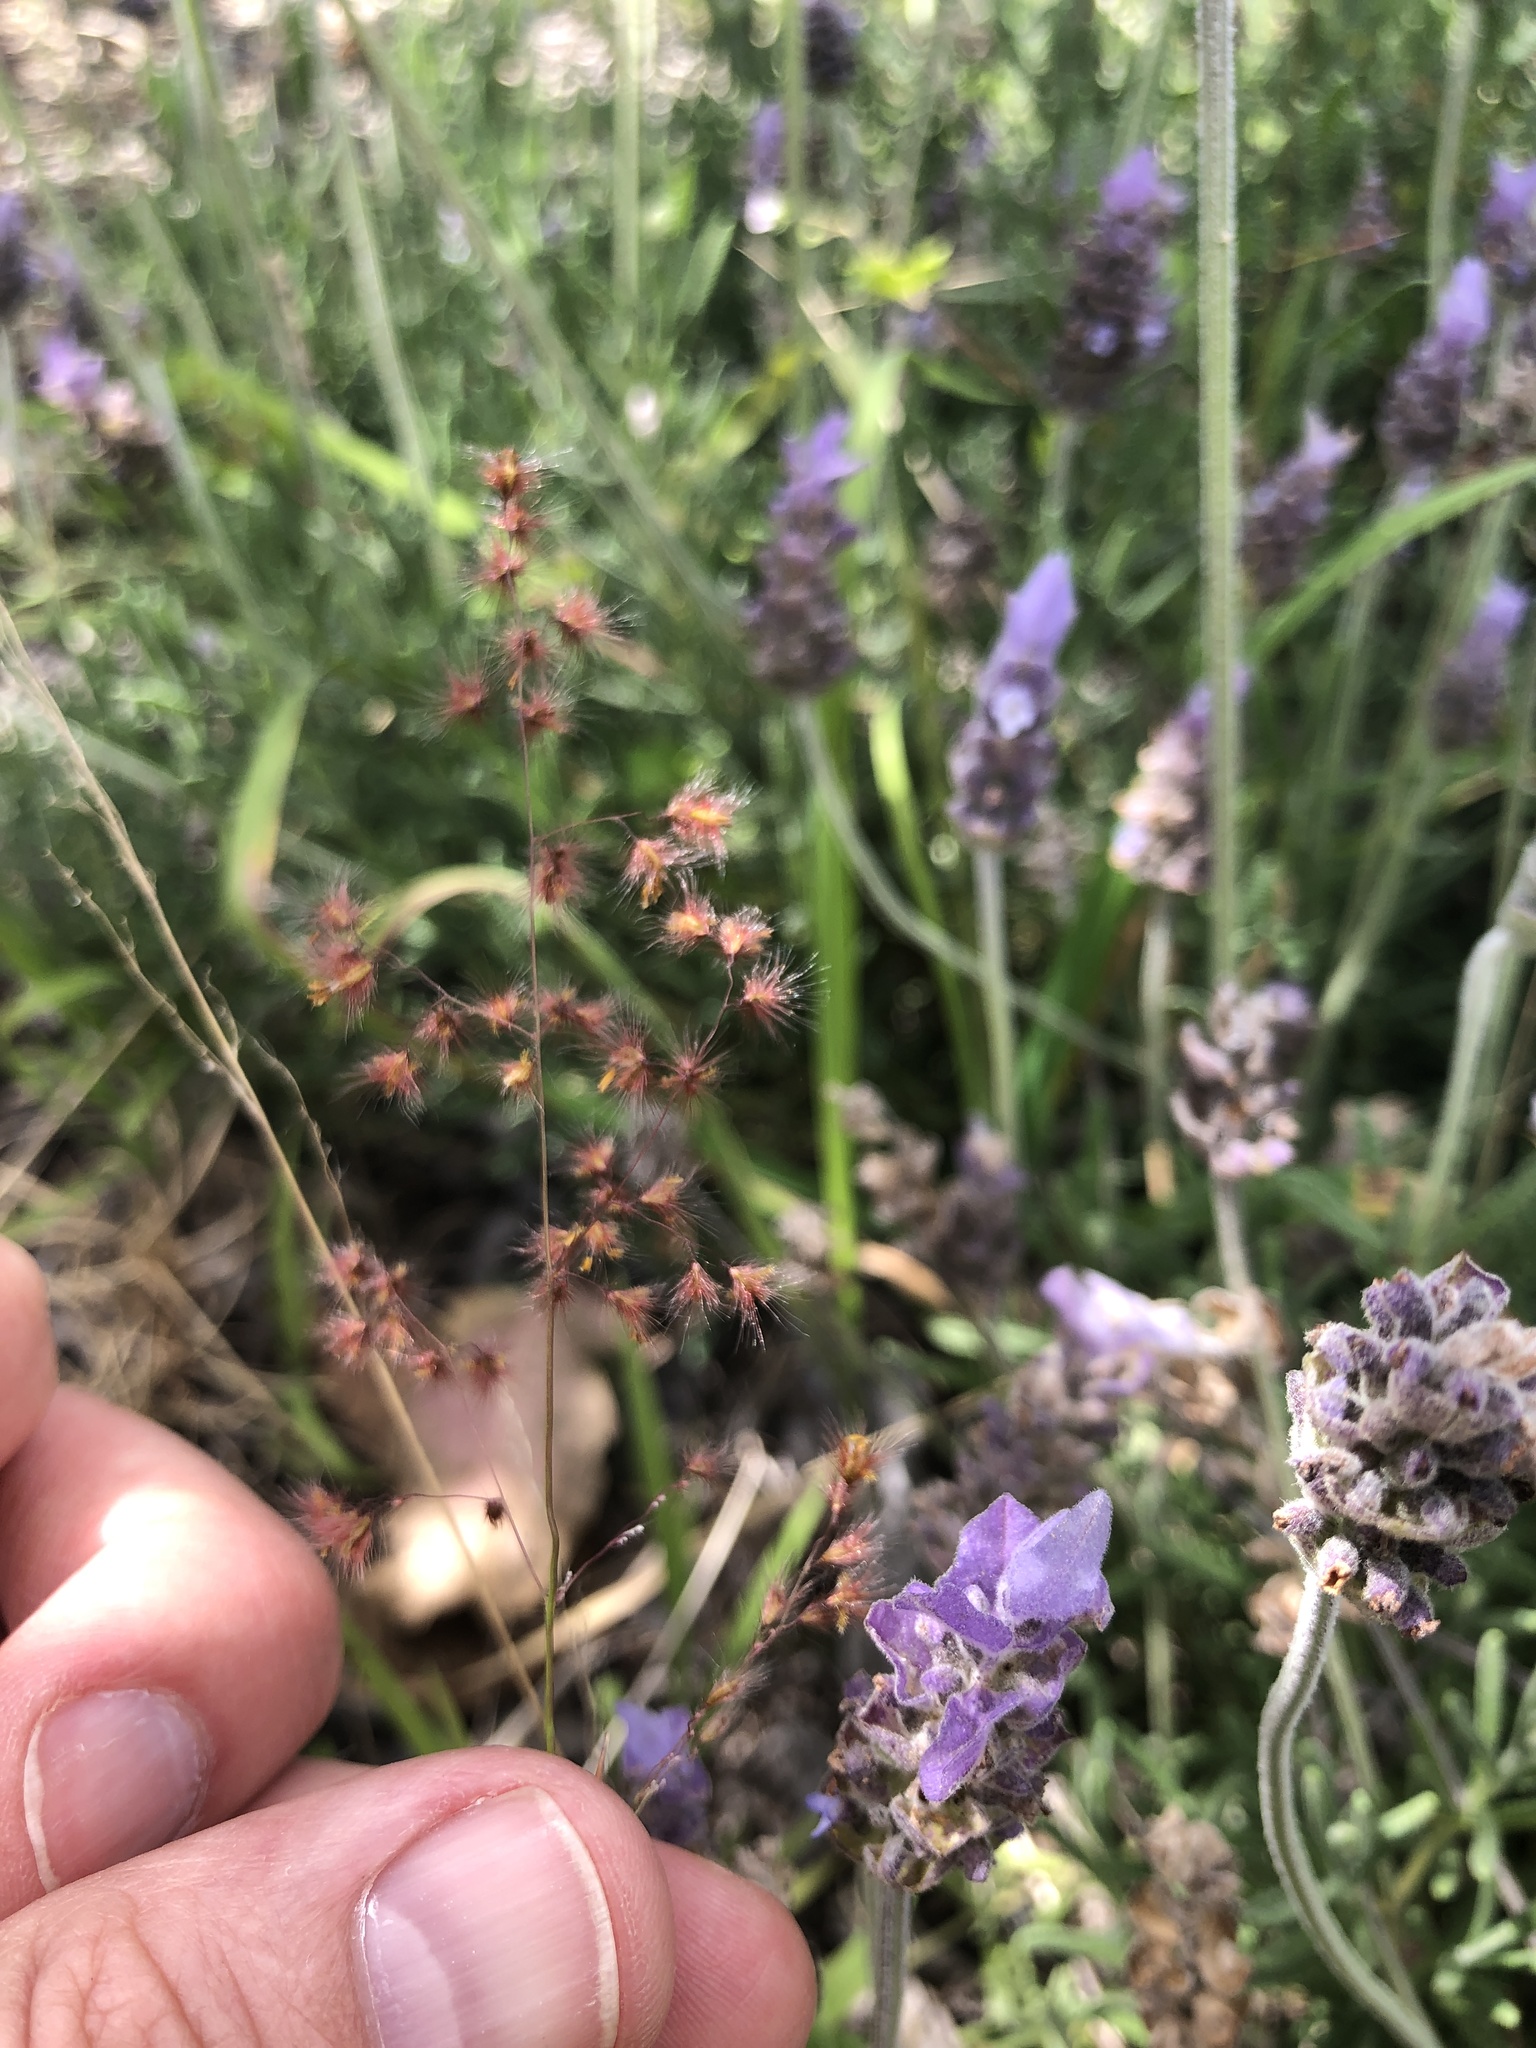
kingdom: Plantae
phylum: Tracheophyta
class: Liliopsida
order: Poales
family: Poaceae
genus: Melinis
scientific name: Melinis repens
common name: Rose natal grass
